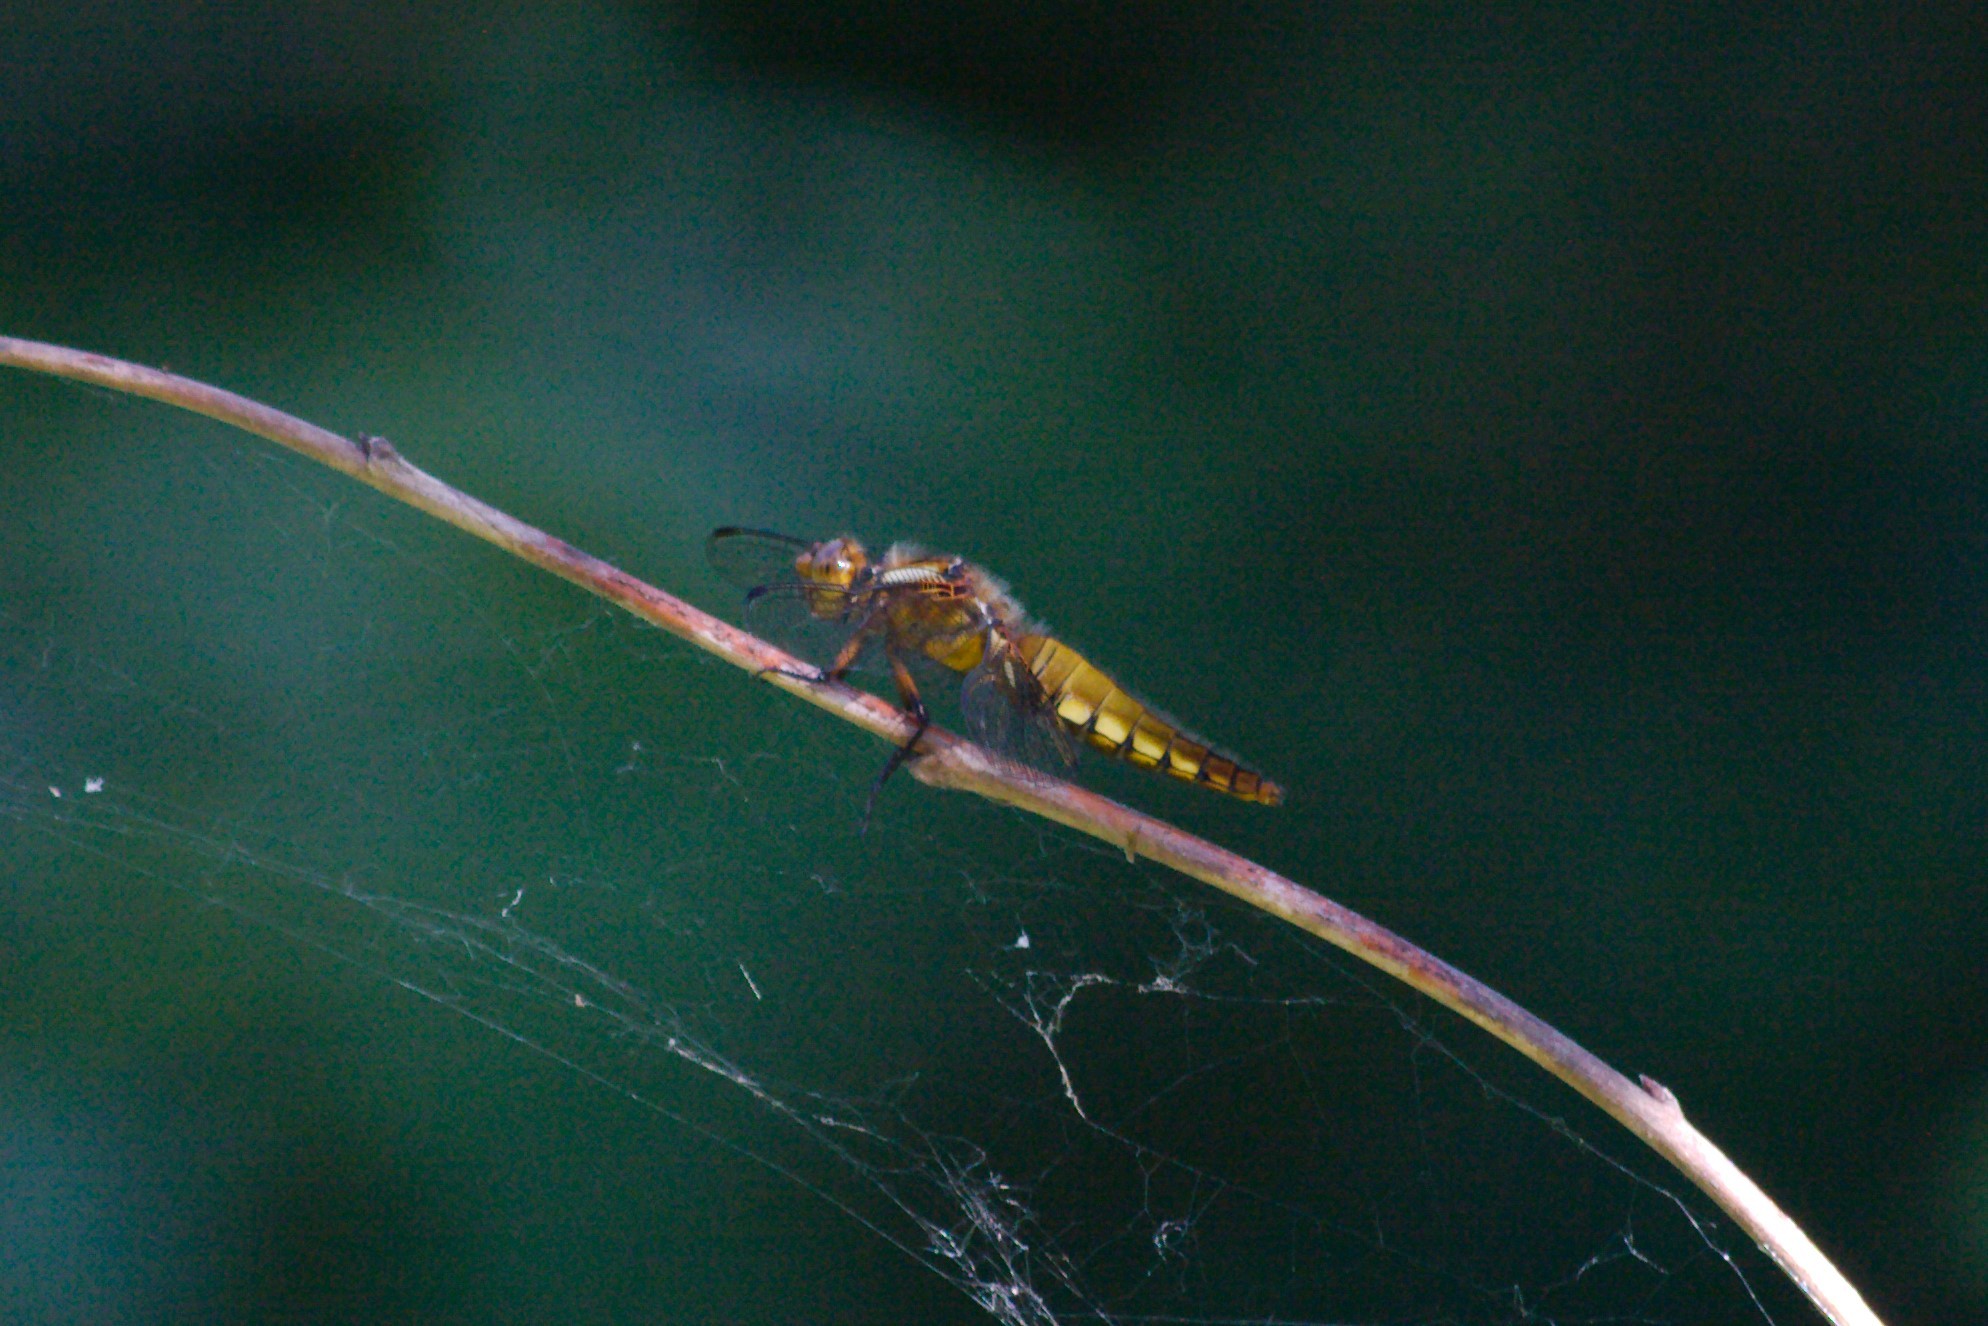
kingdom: Animalia
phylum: Arthropoda
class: Insecta
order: Odonata
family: Libellulidae
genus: Libellula
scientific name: Libellula depressa
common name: Broad-bodied chaser
